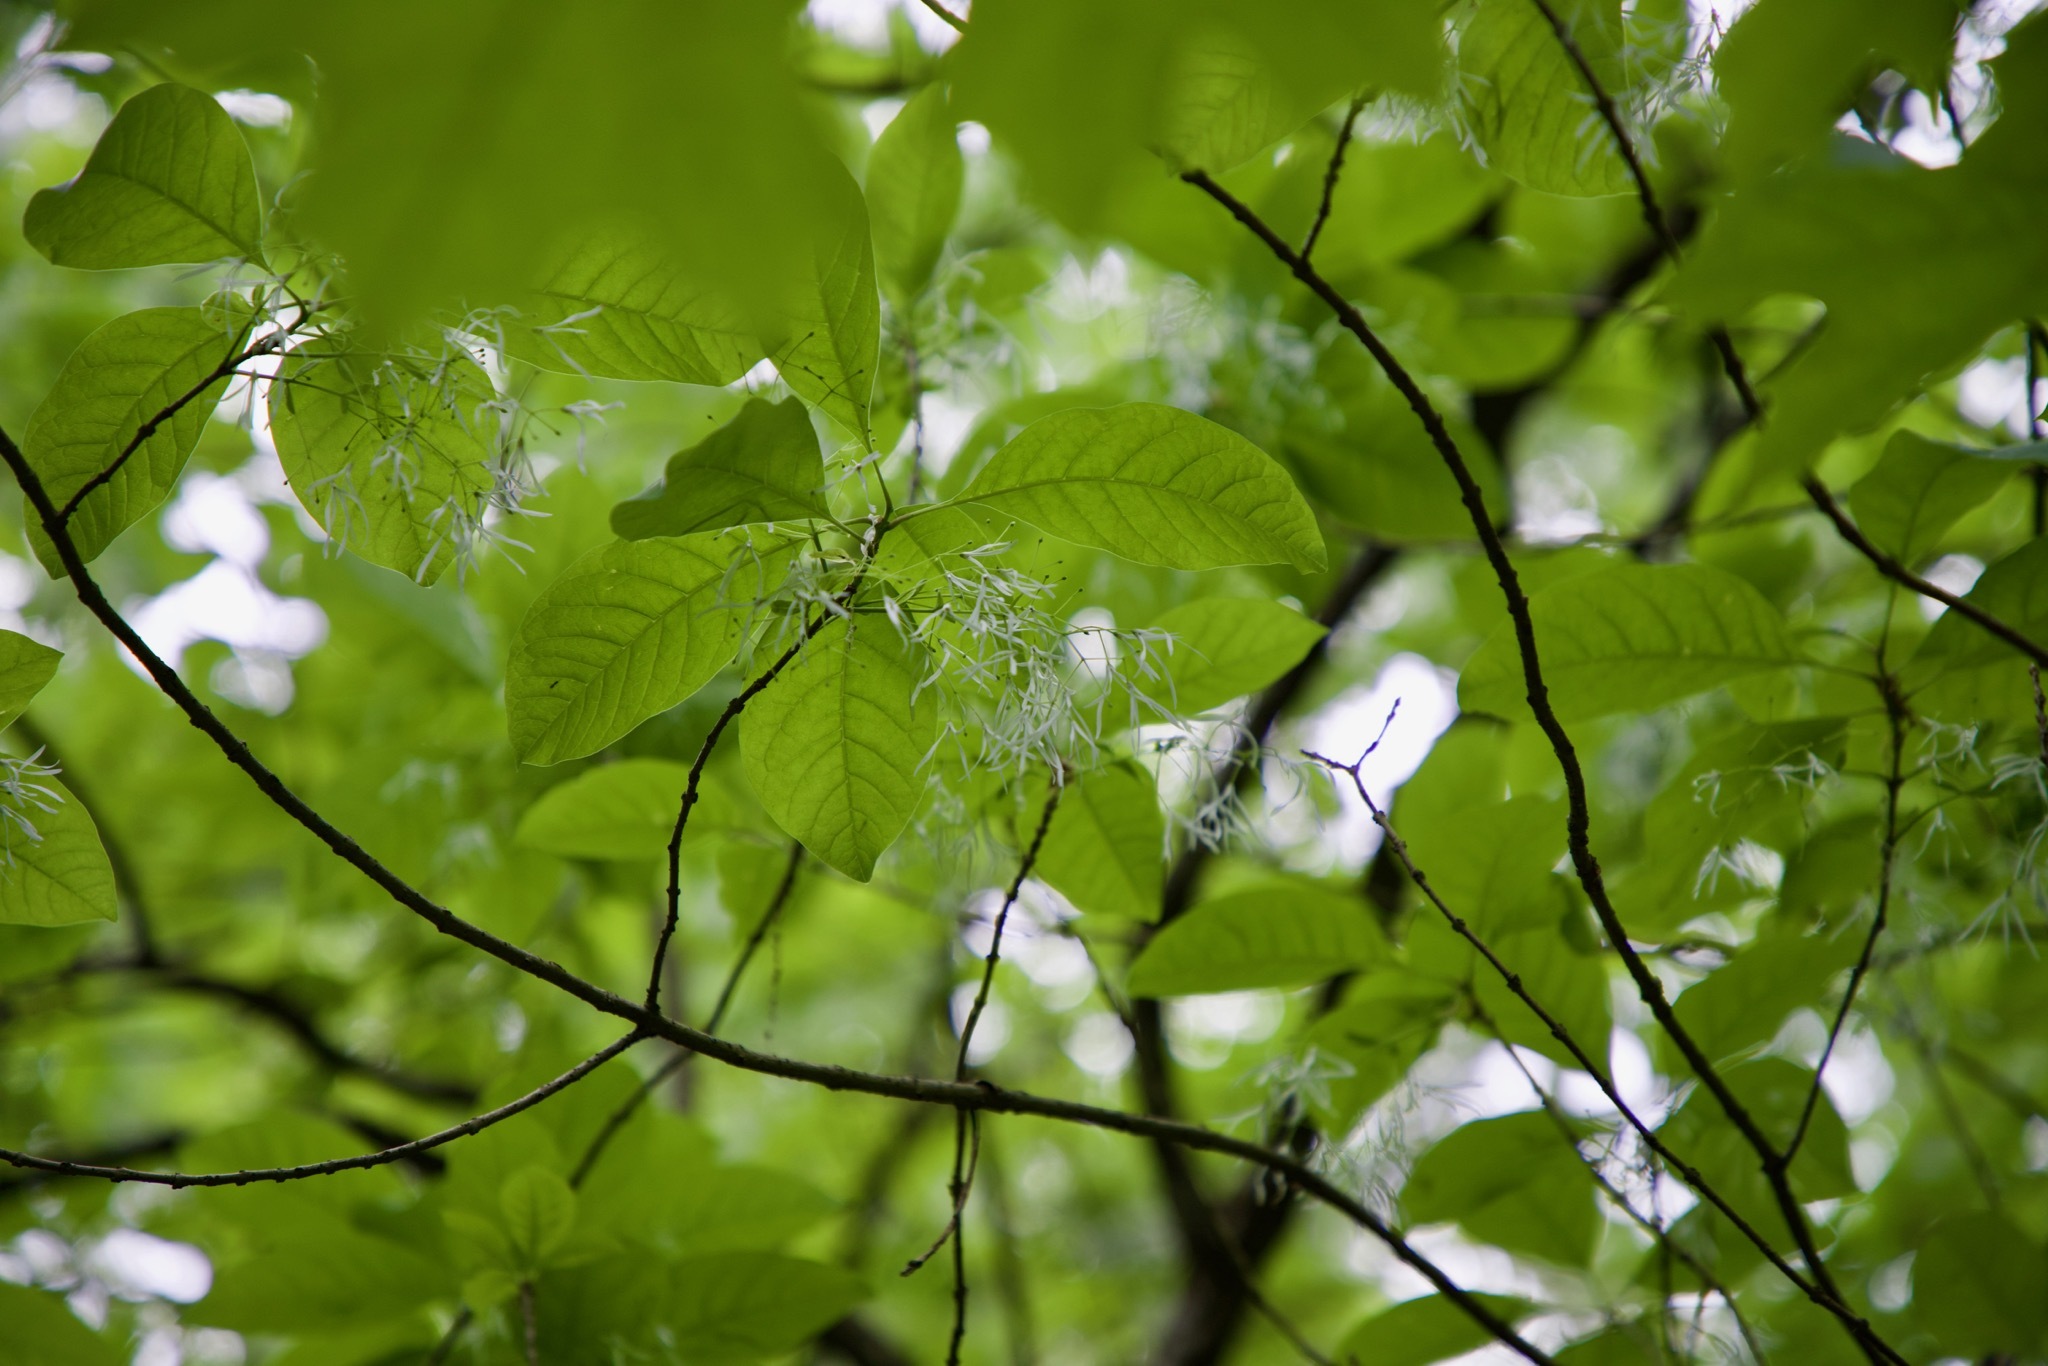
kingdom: Plantae
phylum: Tracheophyta
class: Magnoliopsida
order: Lamiales
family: Oleaceae
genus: Chionanthus
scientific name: Chionanthus virginicus
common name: American fringetree
